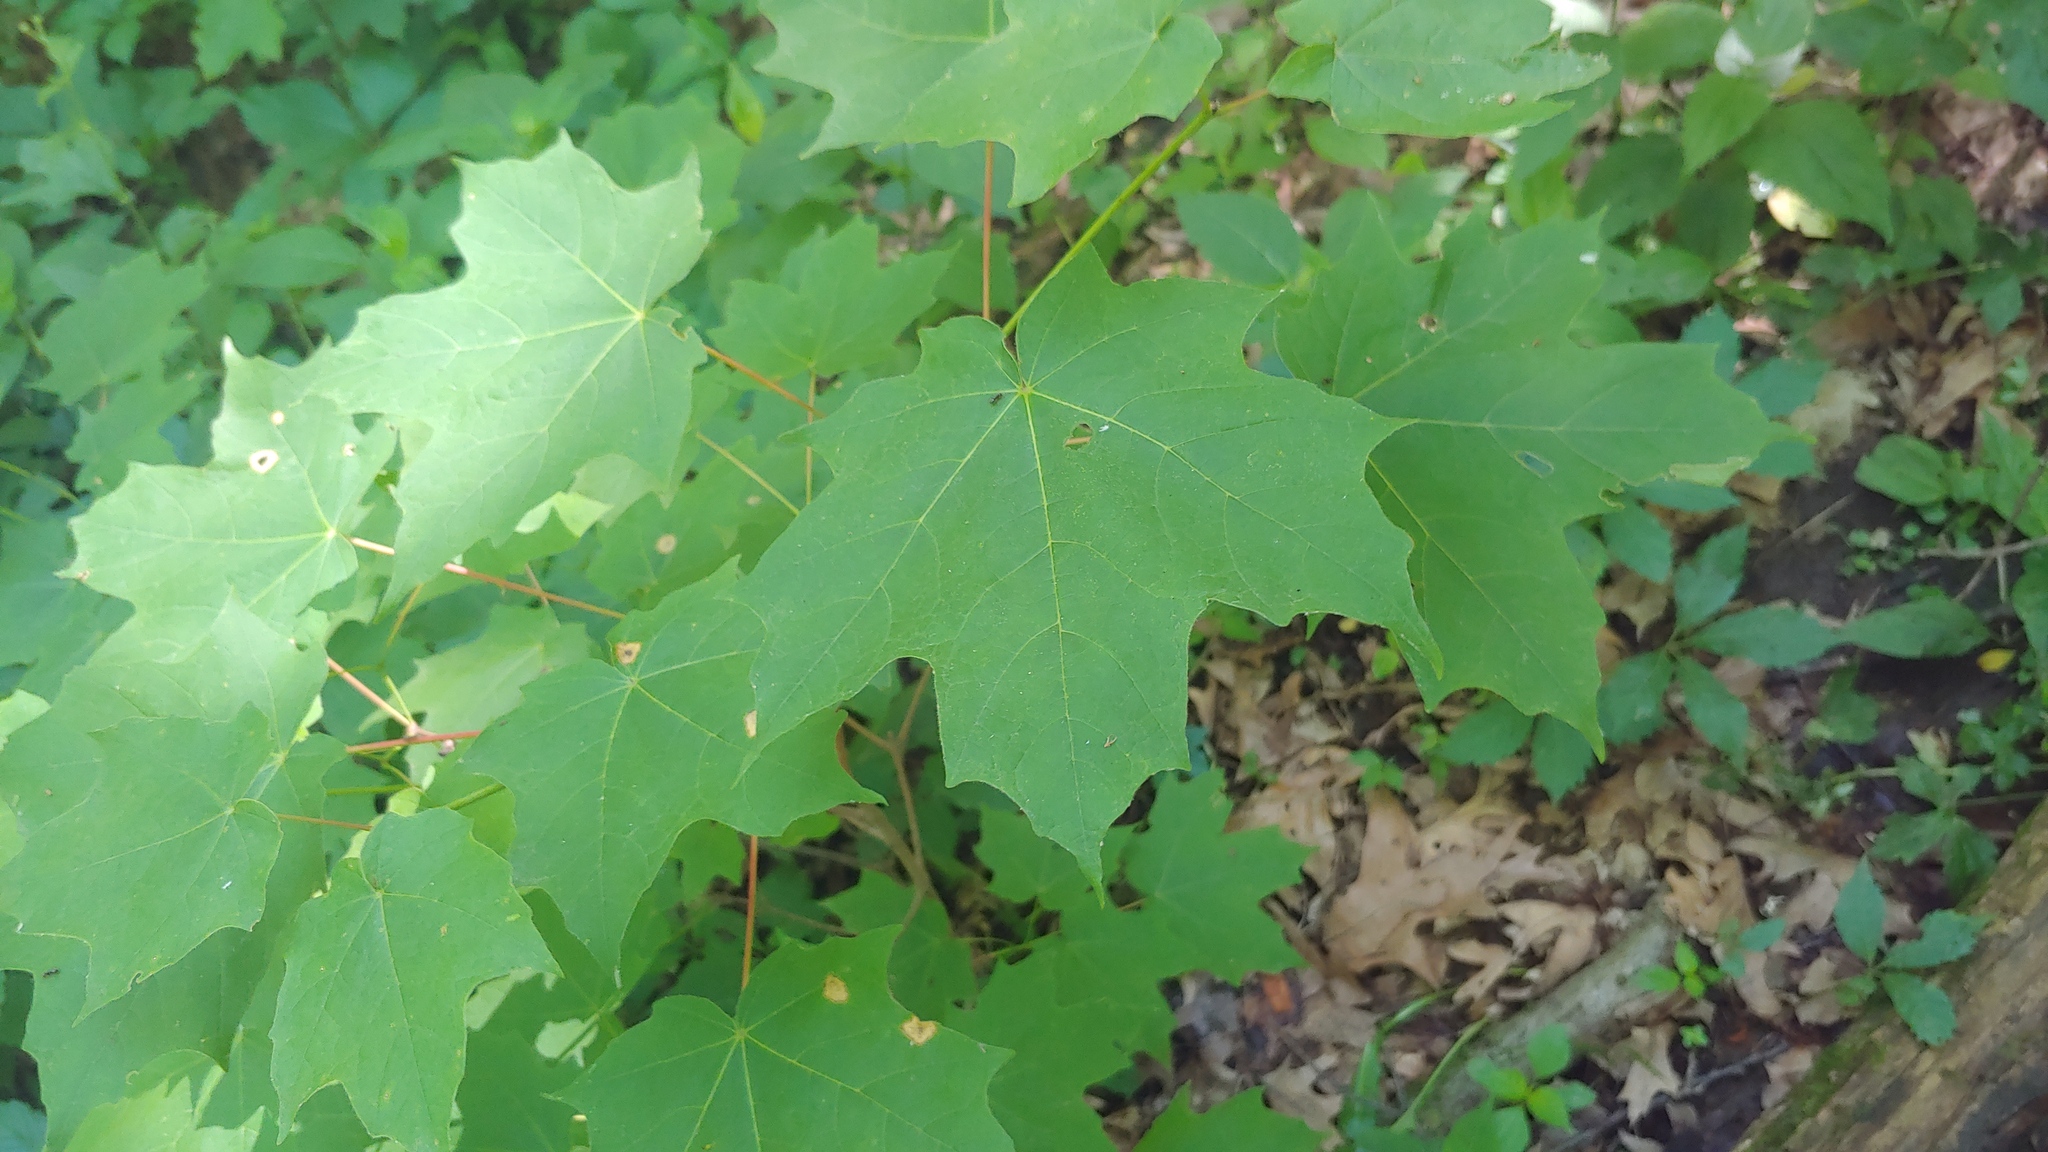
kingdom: Plantae
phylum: Tracheophyta
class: Magnoliopsida
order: Sapindales
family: Sapindaceae
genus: Acer
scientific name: Acer saccharum
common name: Sugar maple
